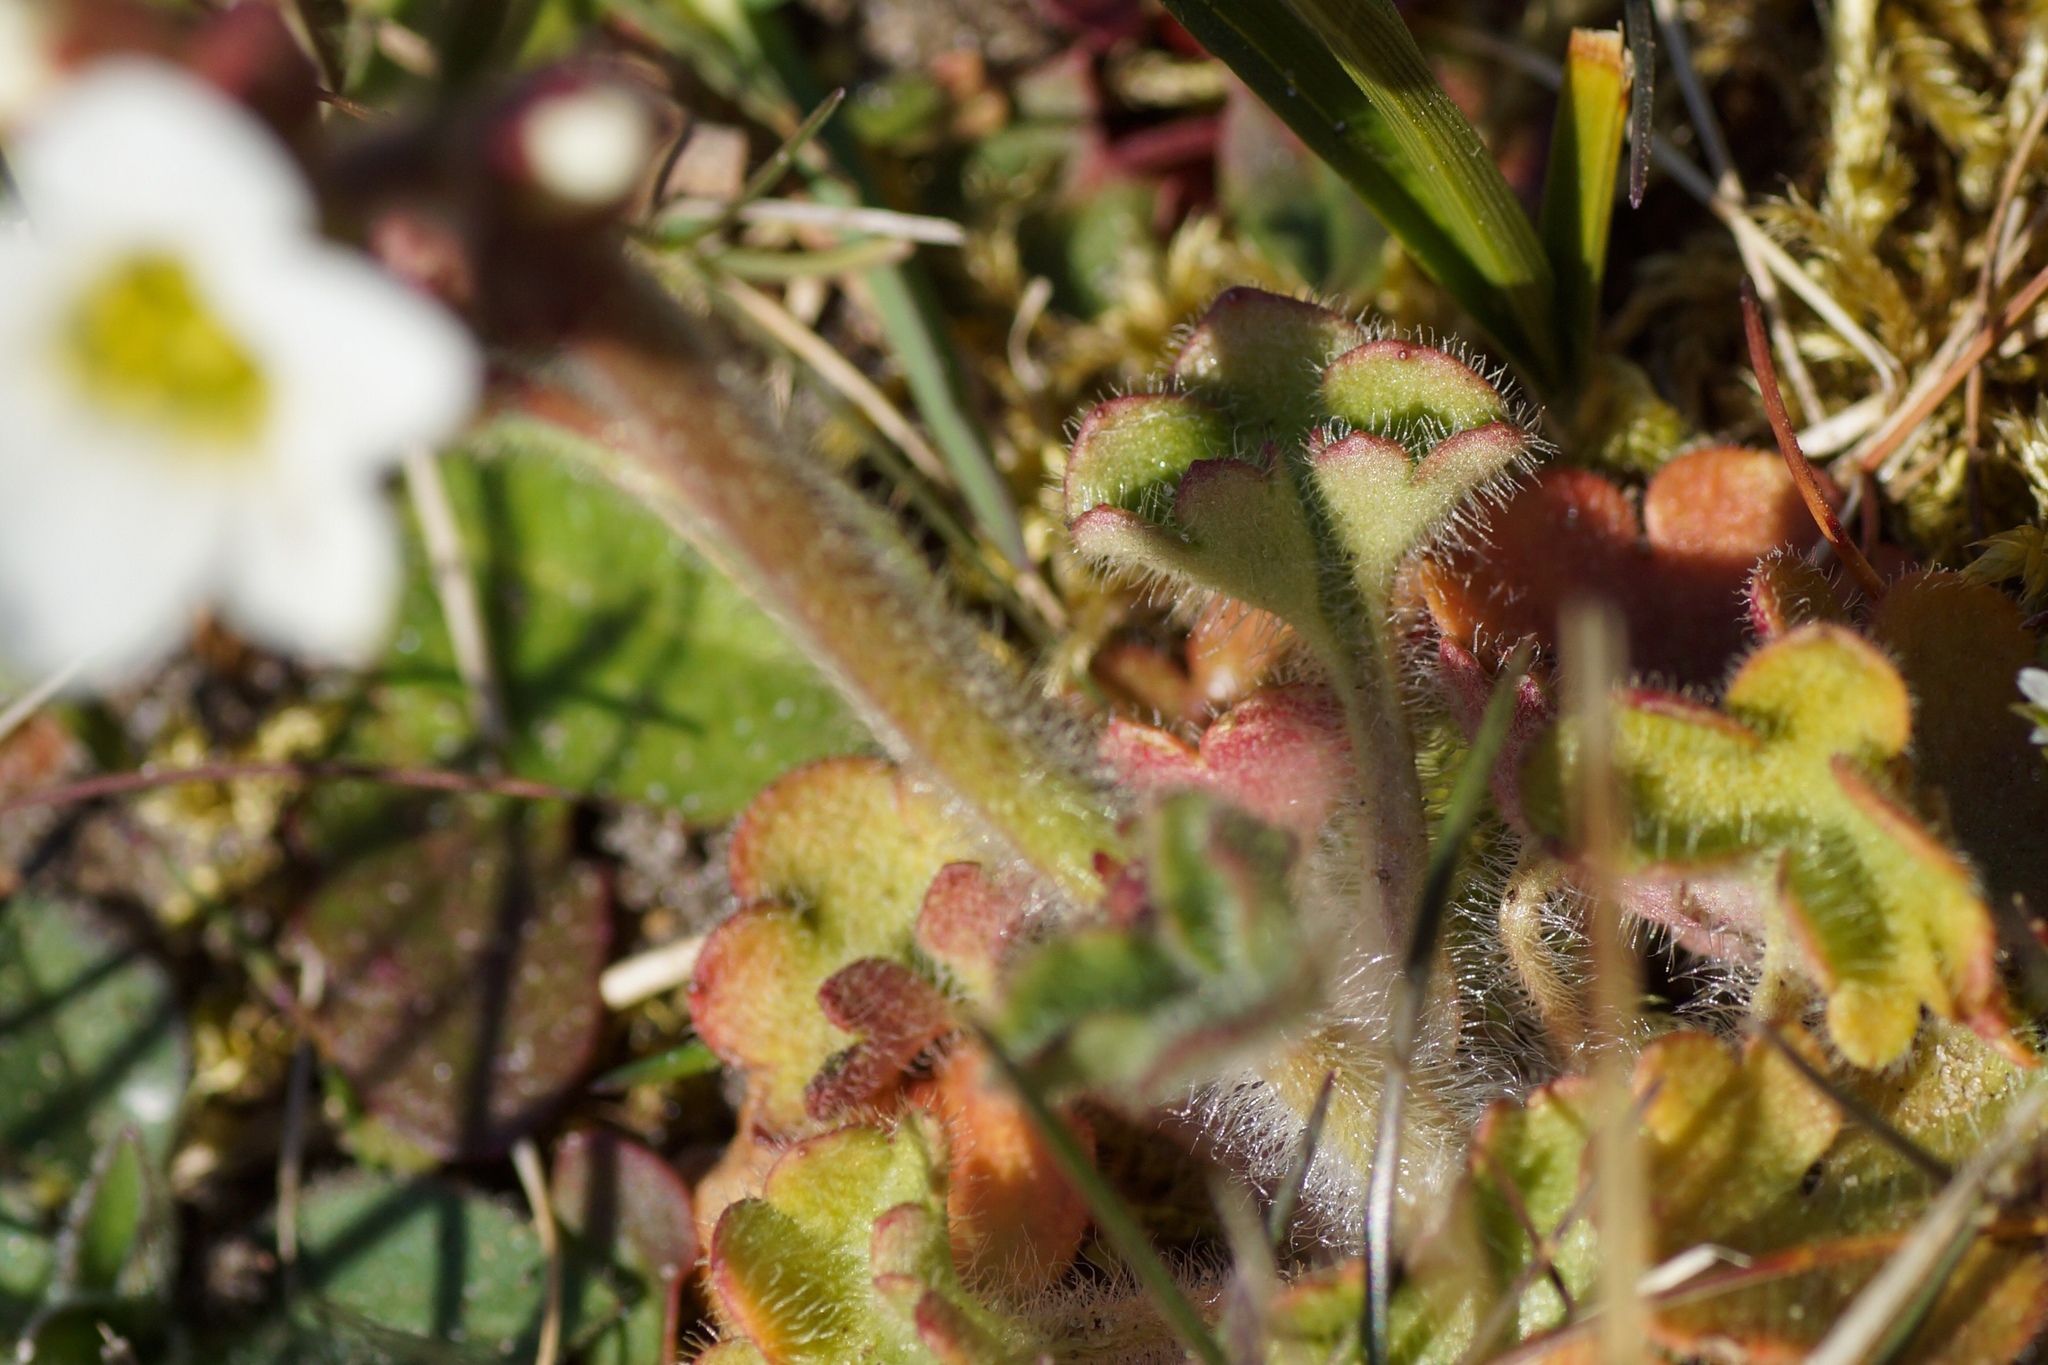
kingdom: Plantae
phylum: Tracheophyta
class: Magnoliopsida
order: Saxifragales
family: Saxifragaceae
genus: Saxifraga
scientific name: Saxifraga granulata
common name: Meadow saxifrage
